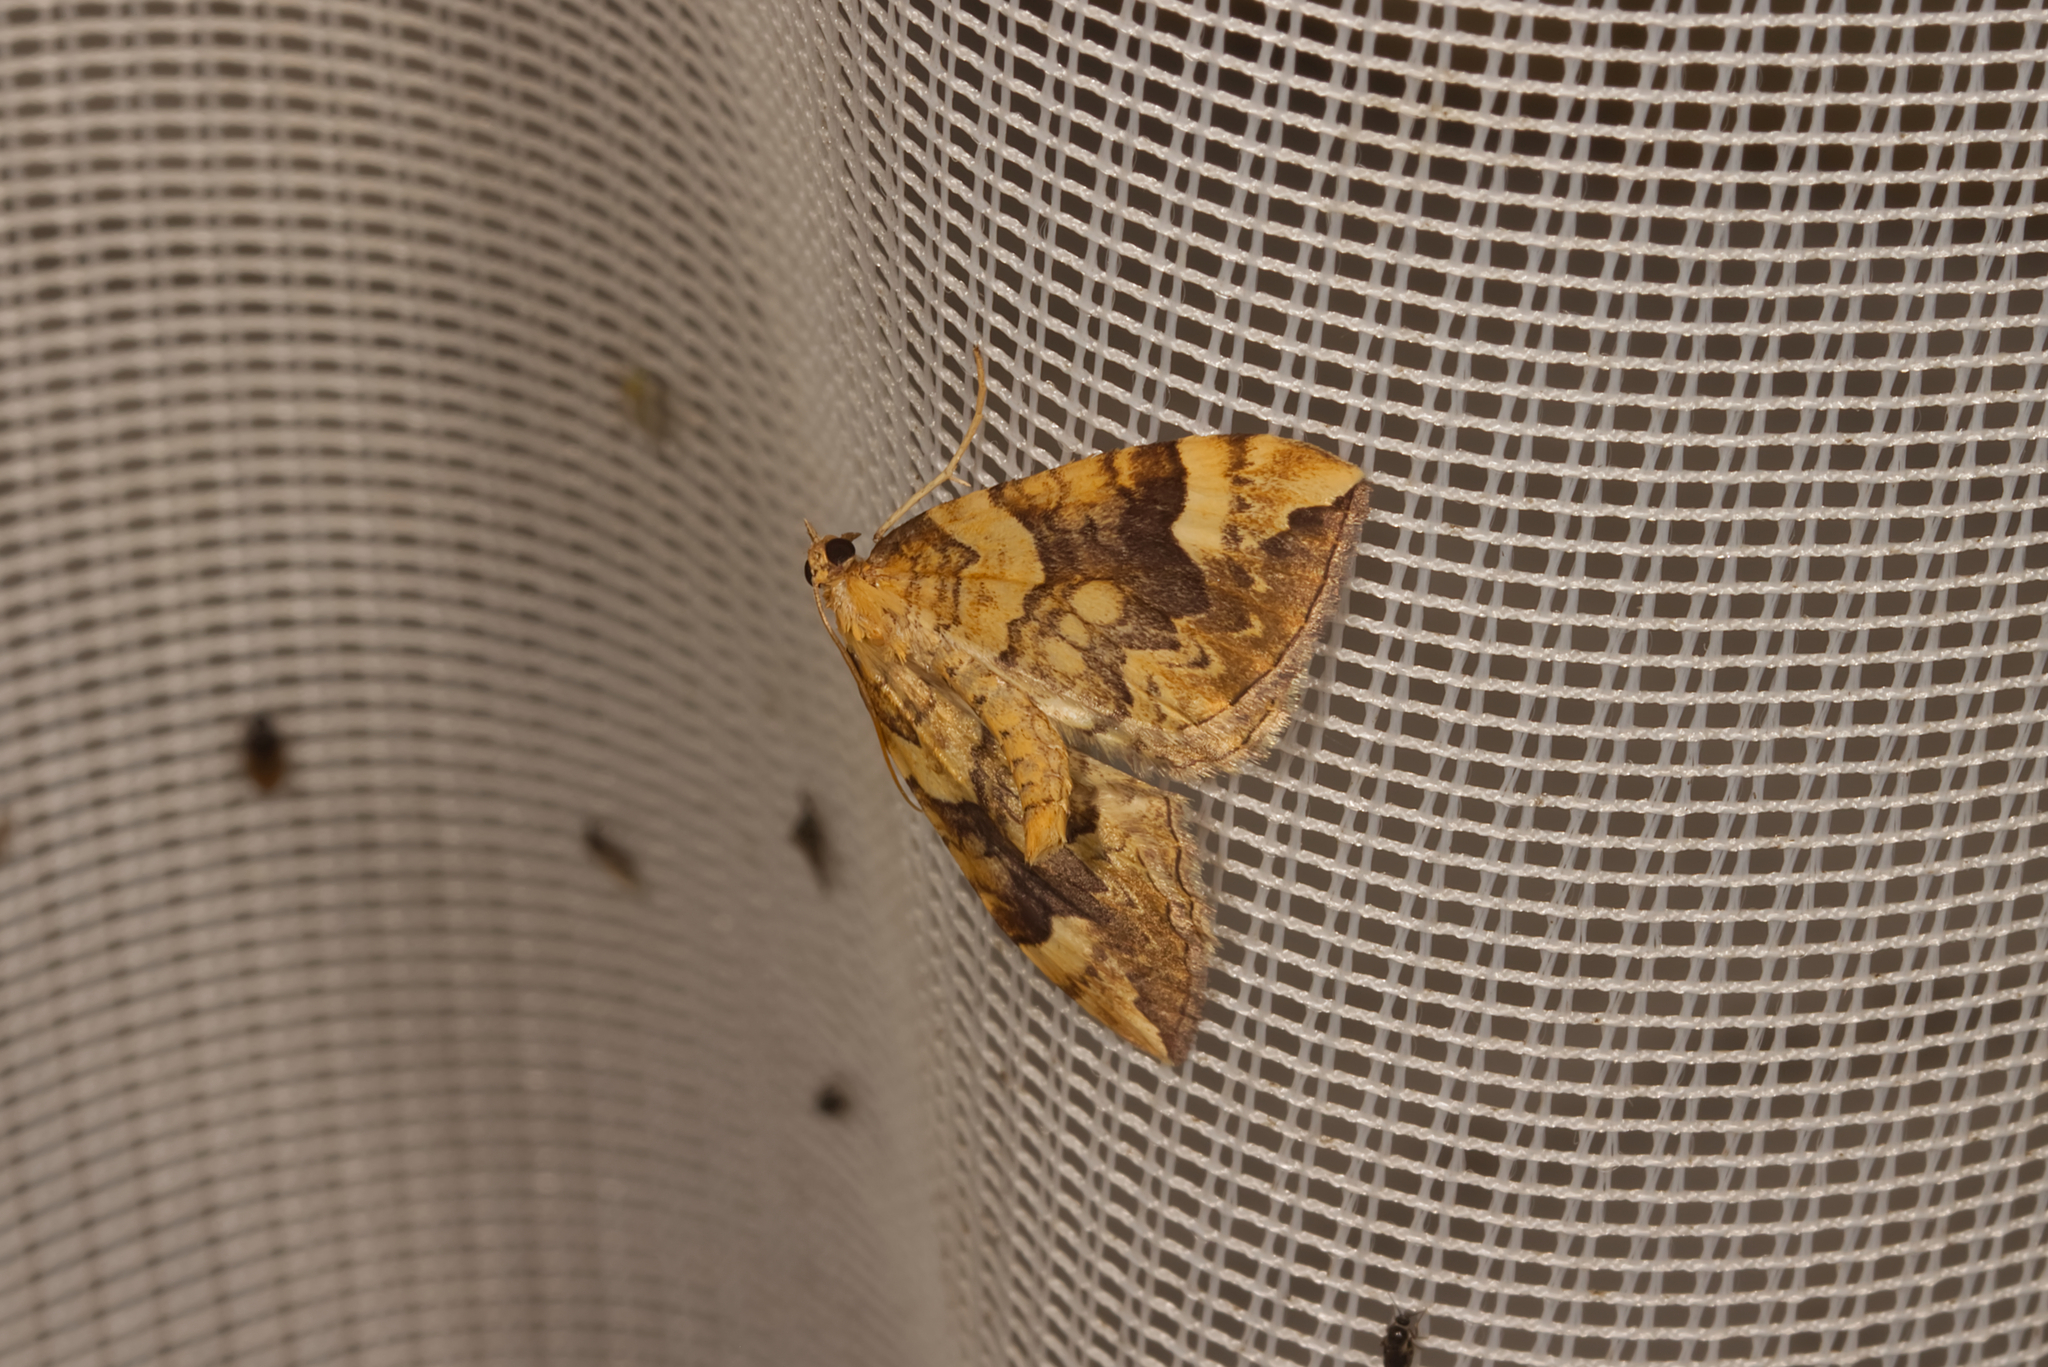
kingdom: Animalia
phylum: Arthropoda
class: Insecta
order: Lepidoptera
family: Geometridae
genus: Eulithis
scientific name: Eulithis populata
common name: Northern spinach
